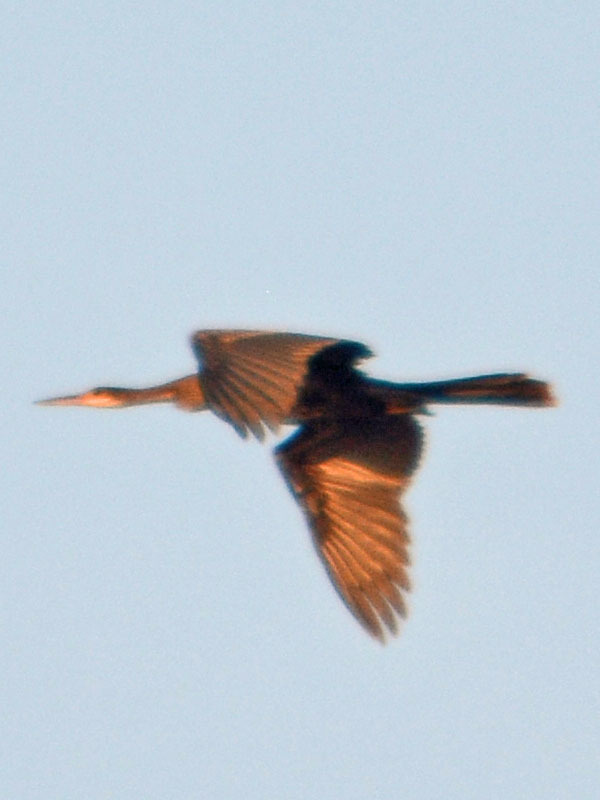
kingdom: Animalia
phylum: Chordata
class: Aves
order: Suliformes
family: Anhingidae
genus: Anhinga
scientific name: Anhinga anhinga
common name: Anhinga
